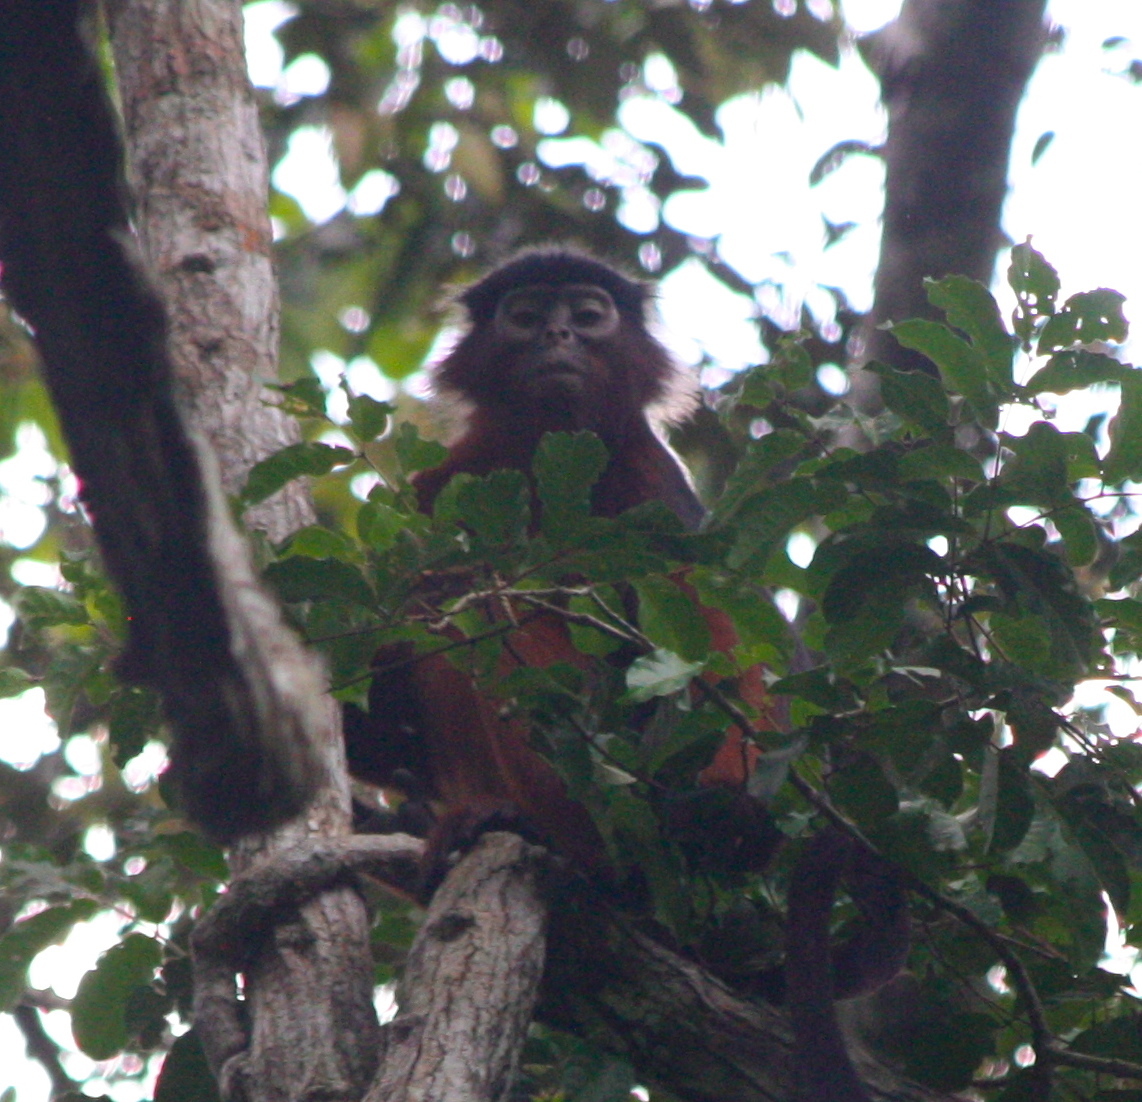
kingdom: Animalia
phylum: Chordata
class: Mammalia
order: Primates
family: Cercopithecidae
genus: Piliocolobus
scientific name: Piliocolobus badius
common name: Western red colobus
